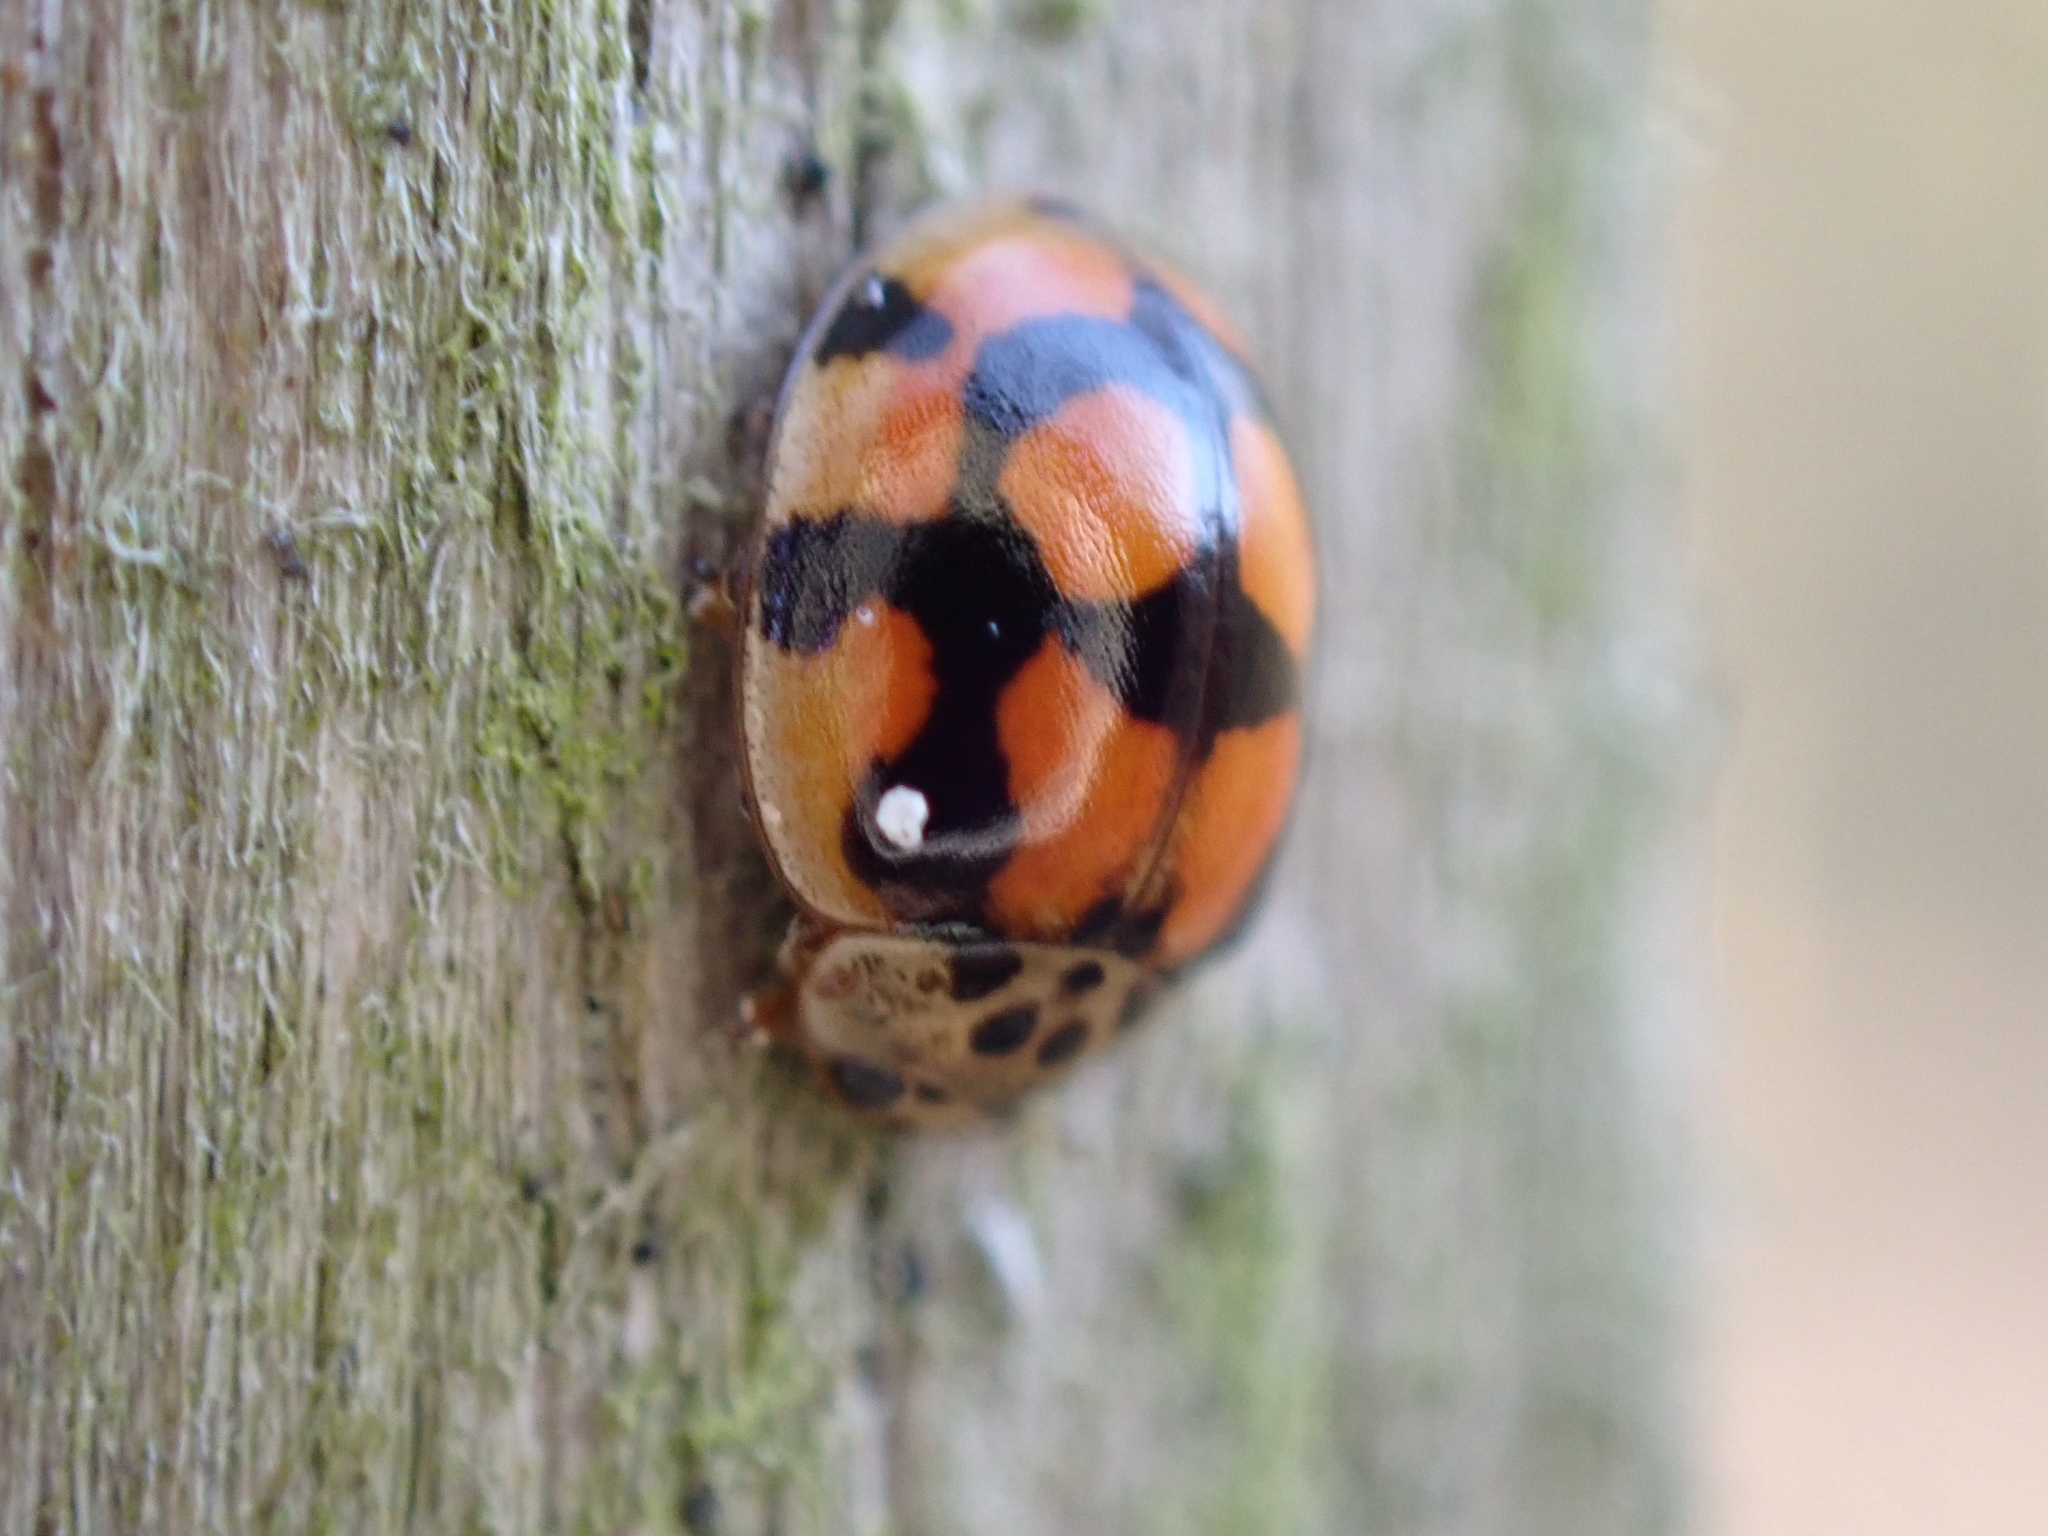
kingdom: Animalia
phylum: Arthropoda
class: Insecta
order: Coleoptera
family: Coccinellidae
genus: Adalia
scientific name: Adalia decempunctata
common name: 10-spot ladybird
